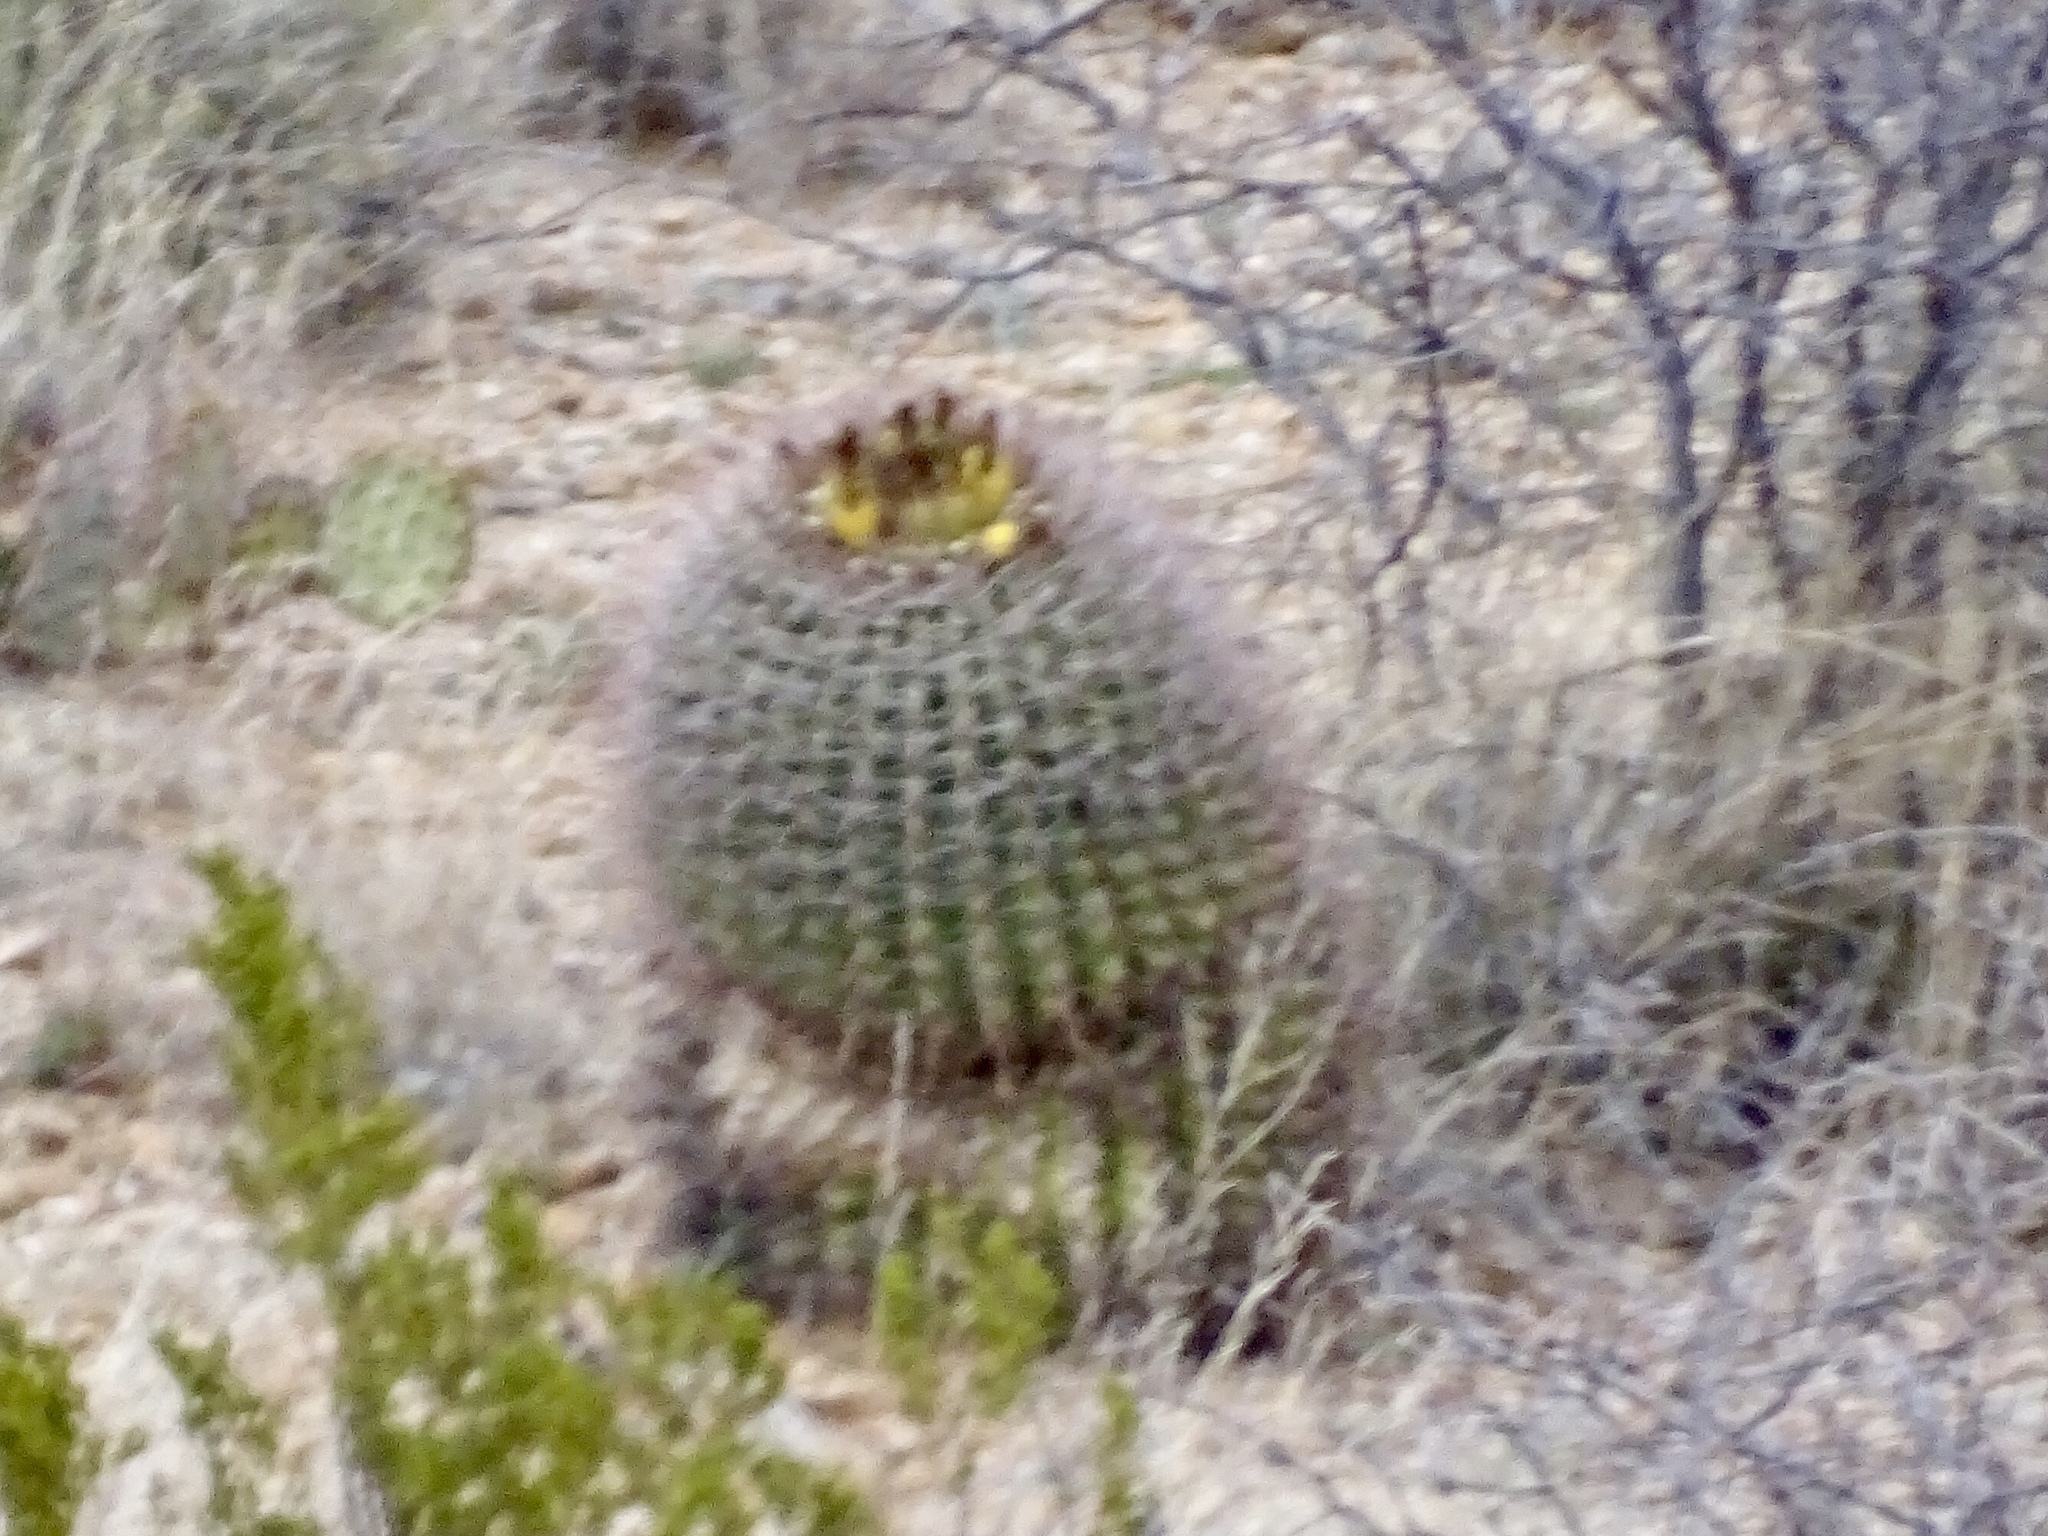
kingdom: Plantae
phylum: Tracheophyta
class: Magnoliopsida
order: Caryophyllales
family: Cactaceae
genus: Ferocactus
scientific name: Ferocactus wislizeni
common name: Candy barrel cactus
